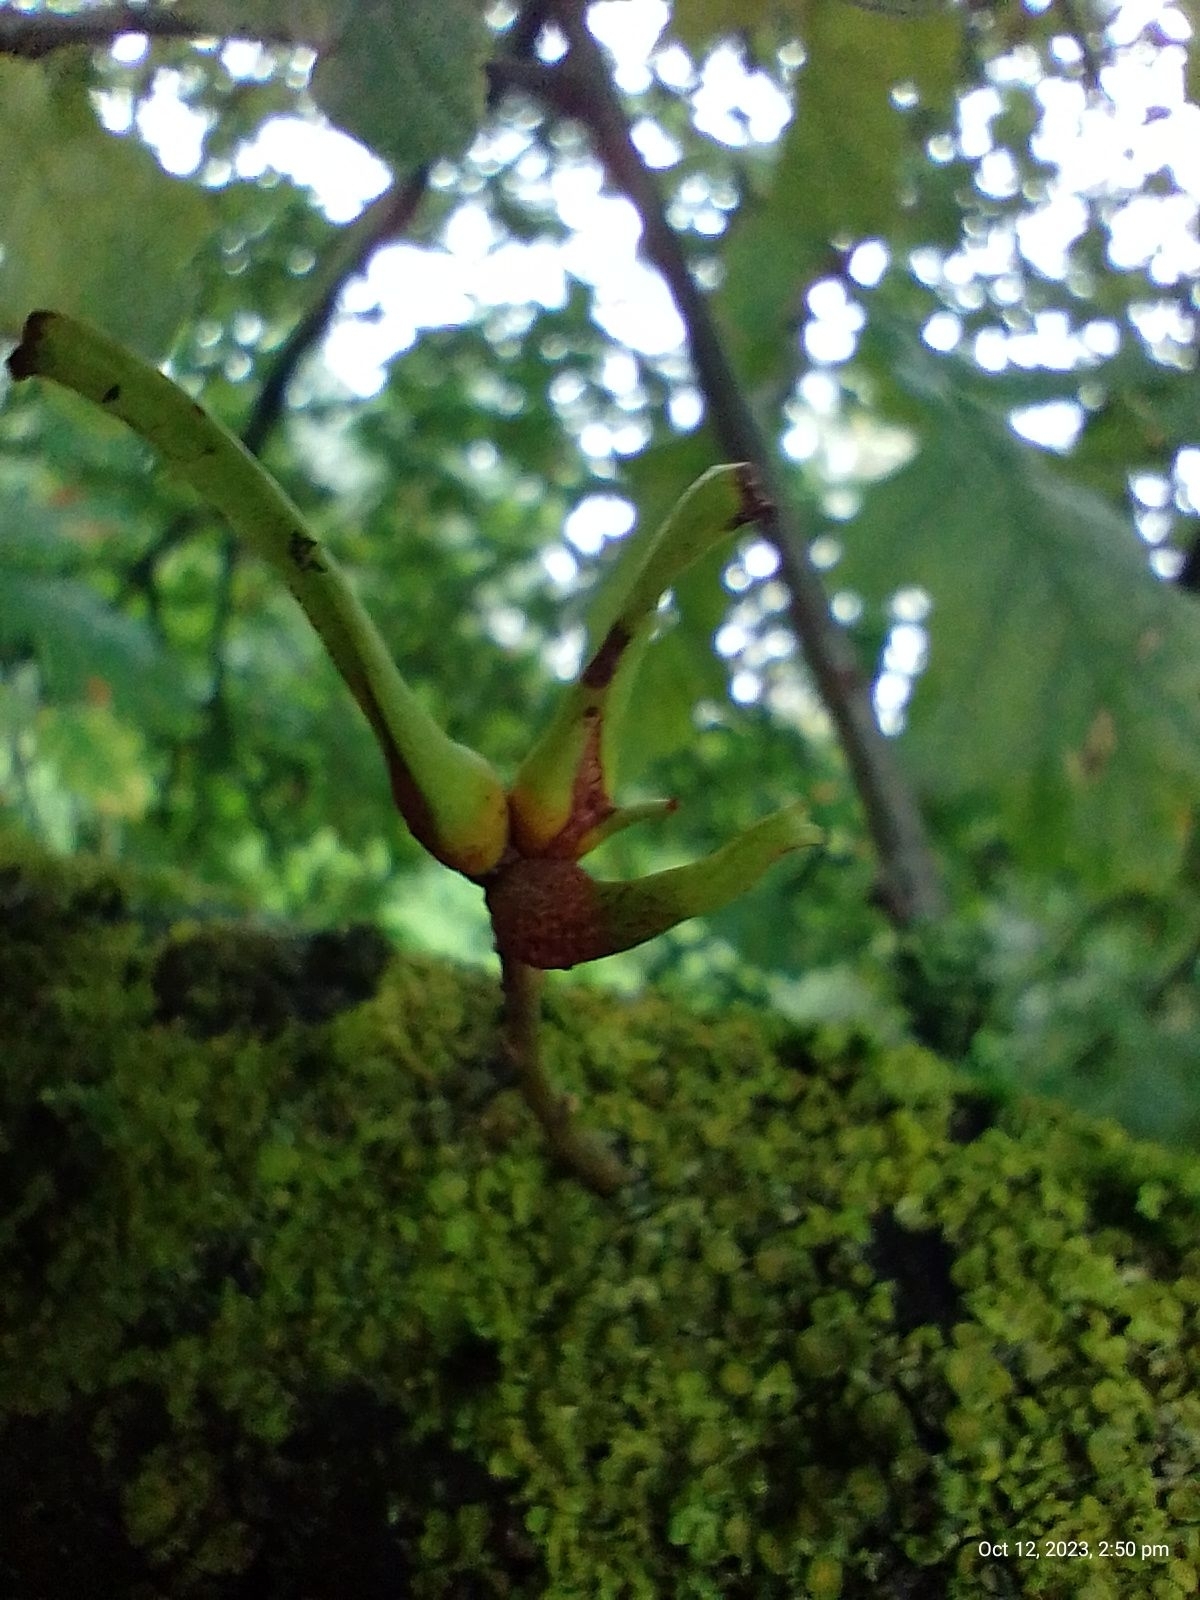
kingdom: Animalia
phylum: Arthropoda
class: Insecta
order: Hymenoptera
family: Cynipidae
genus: Andricus
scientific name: Andricus aries
